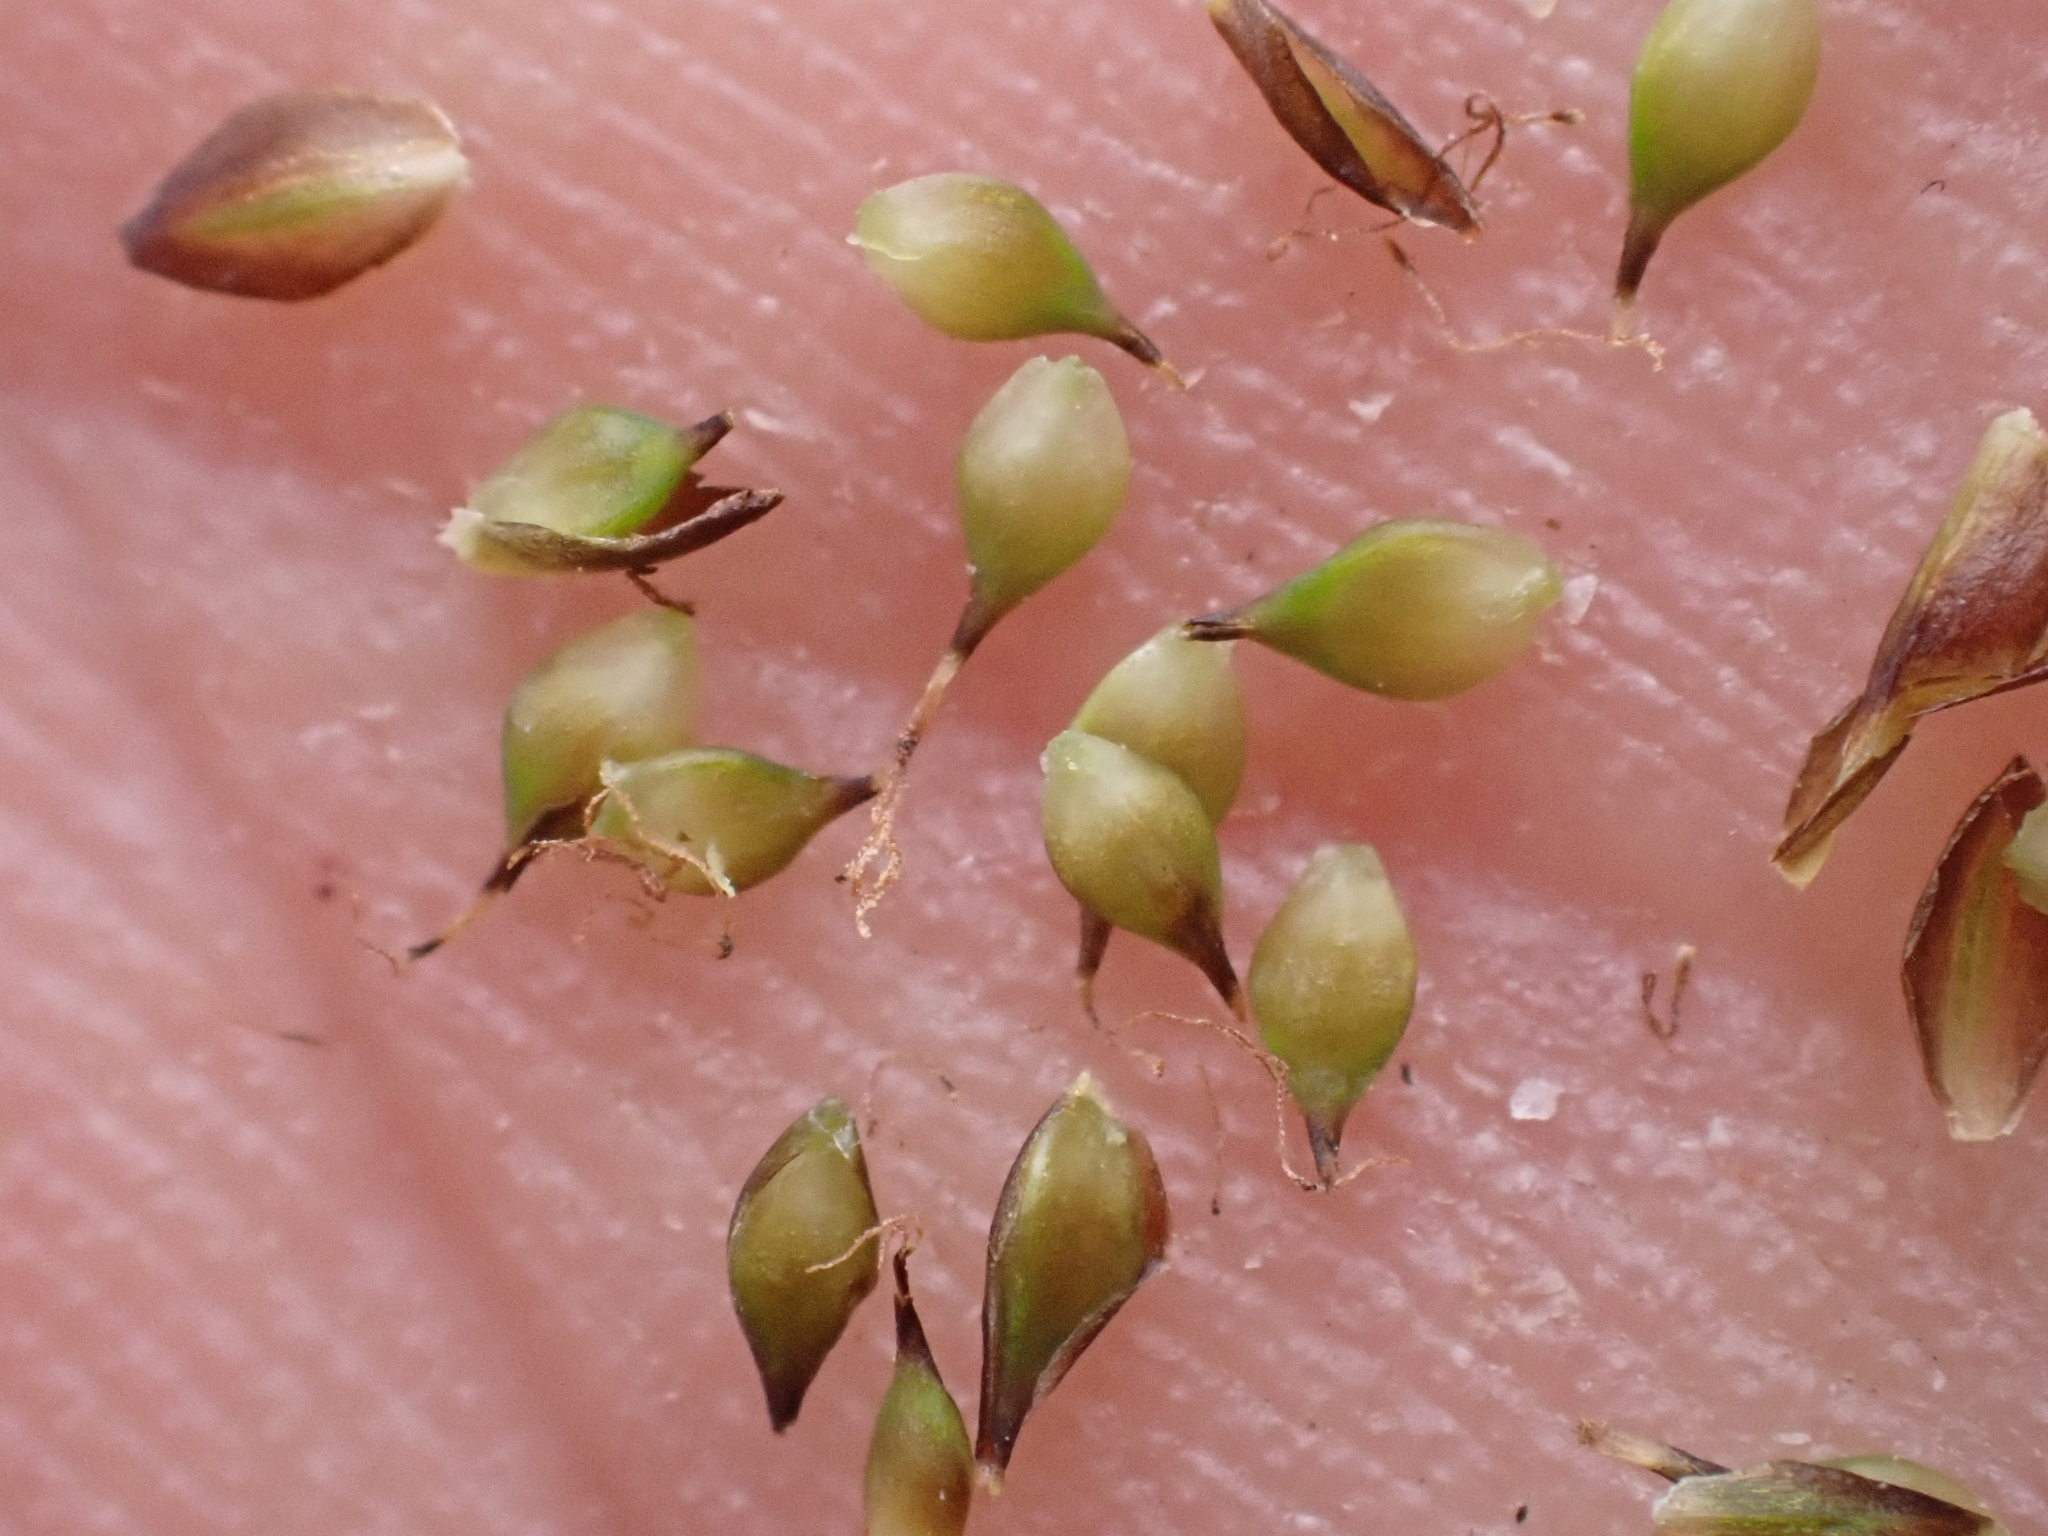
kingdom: Plantae
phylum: Tracheophyta
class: Liliopsida
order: Poales
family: Cyperaceae
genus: Carex
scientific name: Carex lachenalii
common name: Hare's-foot sedge
